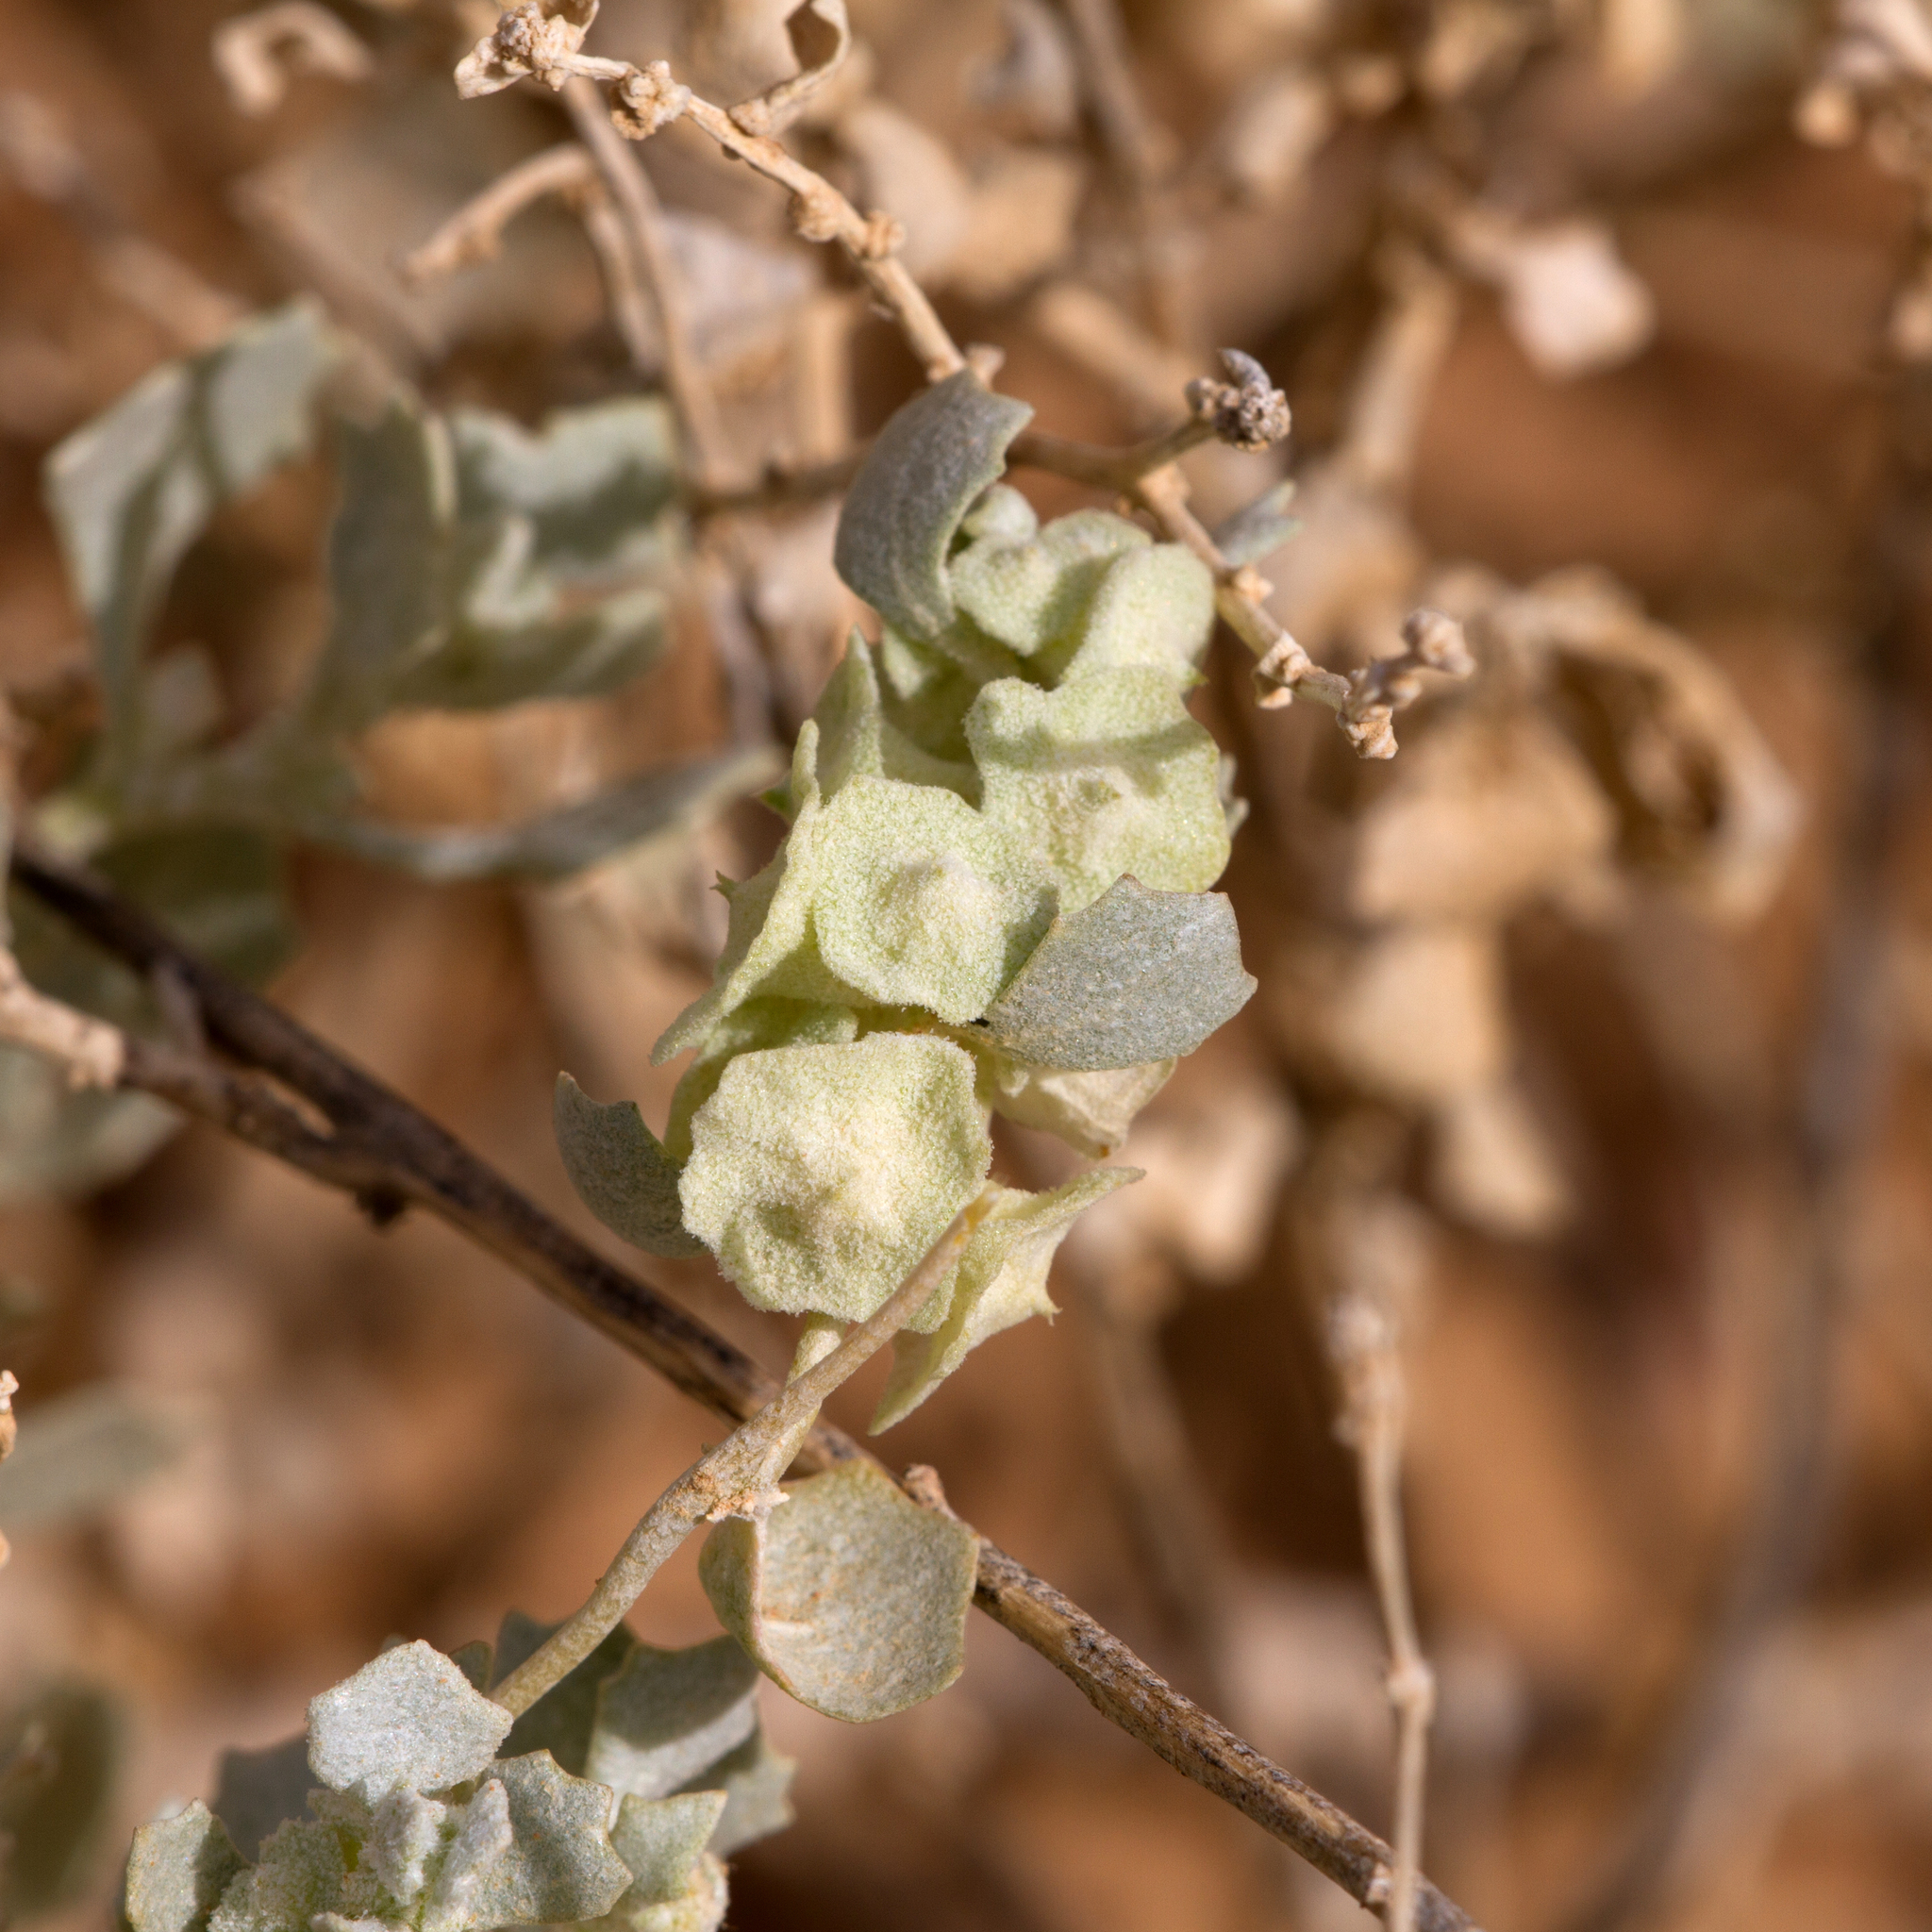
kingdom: Plantae
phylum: Tracheophyta
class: Magnoliopsida
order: Caryophyllales
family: Amaranthaceae
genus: Atriplex
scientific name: Atriplex lindleyi
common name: Lindley's saltbush
